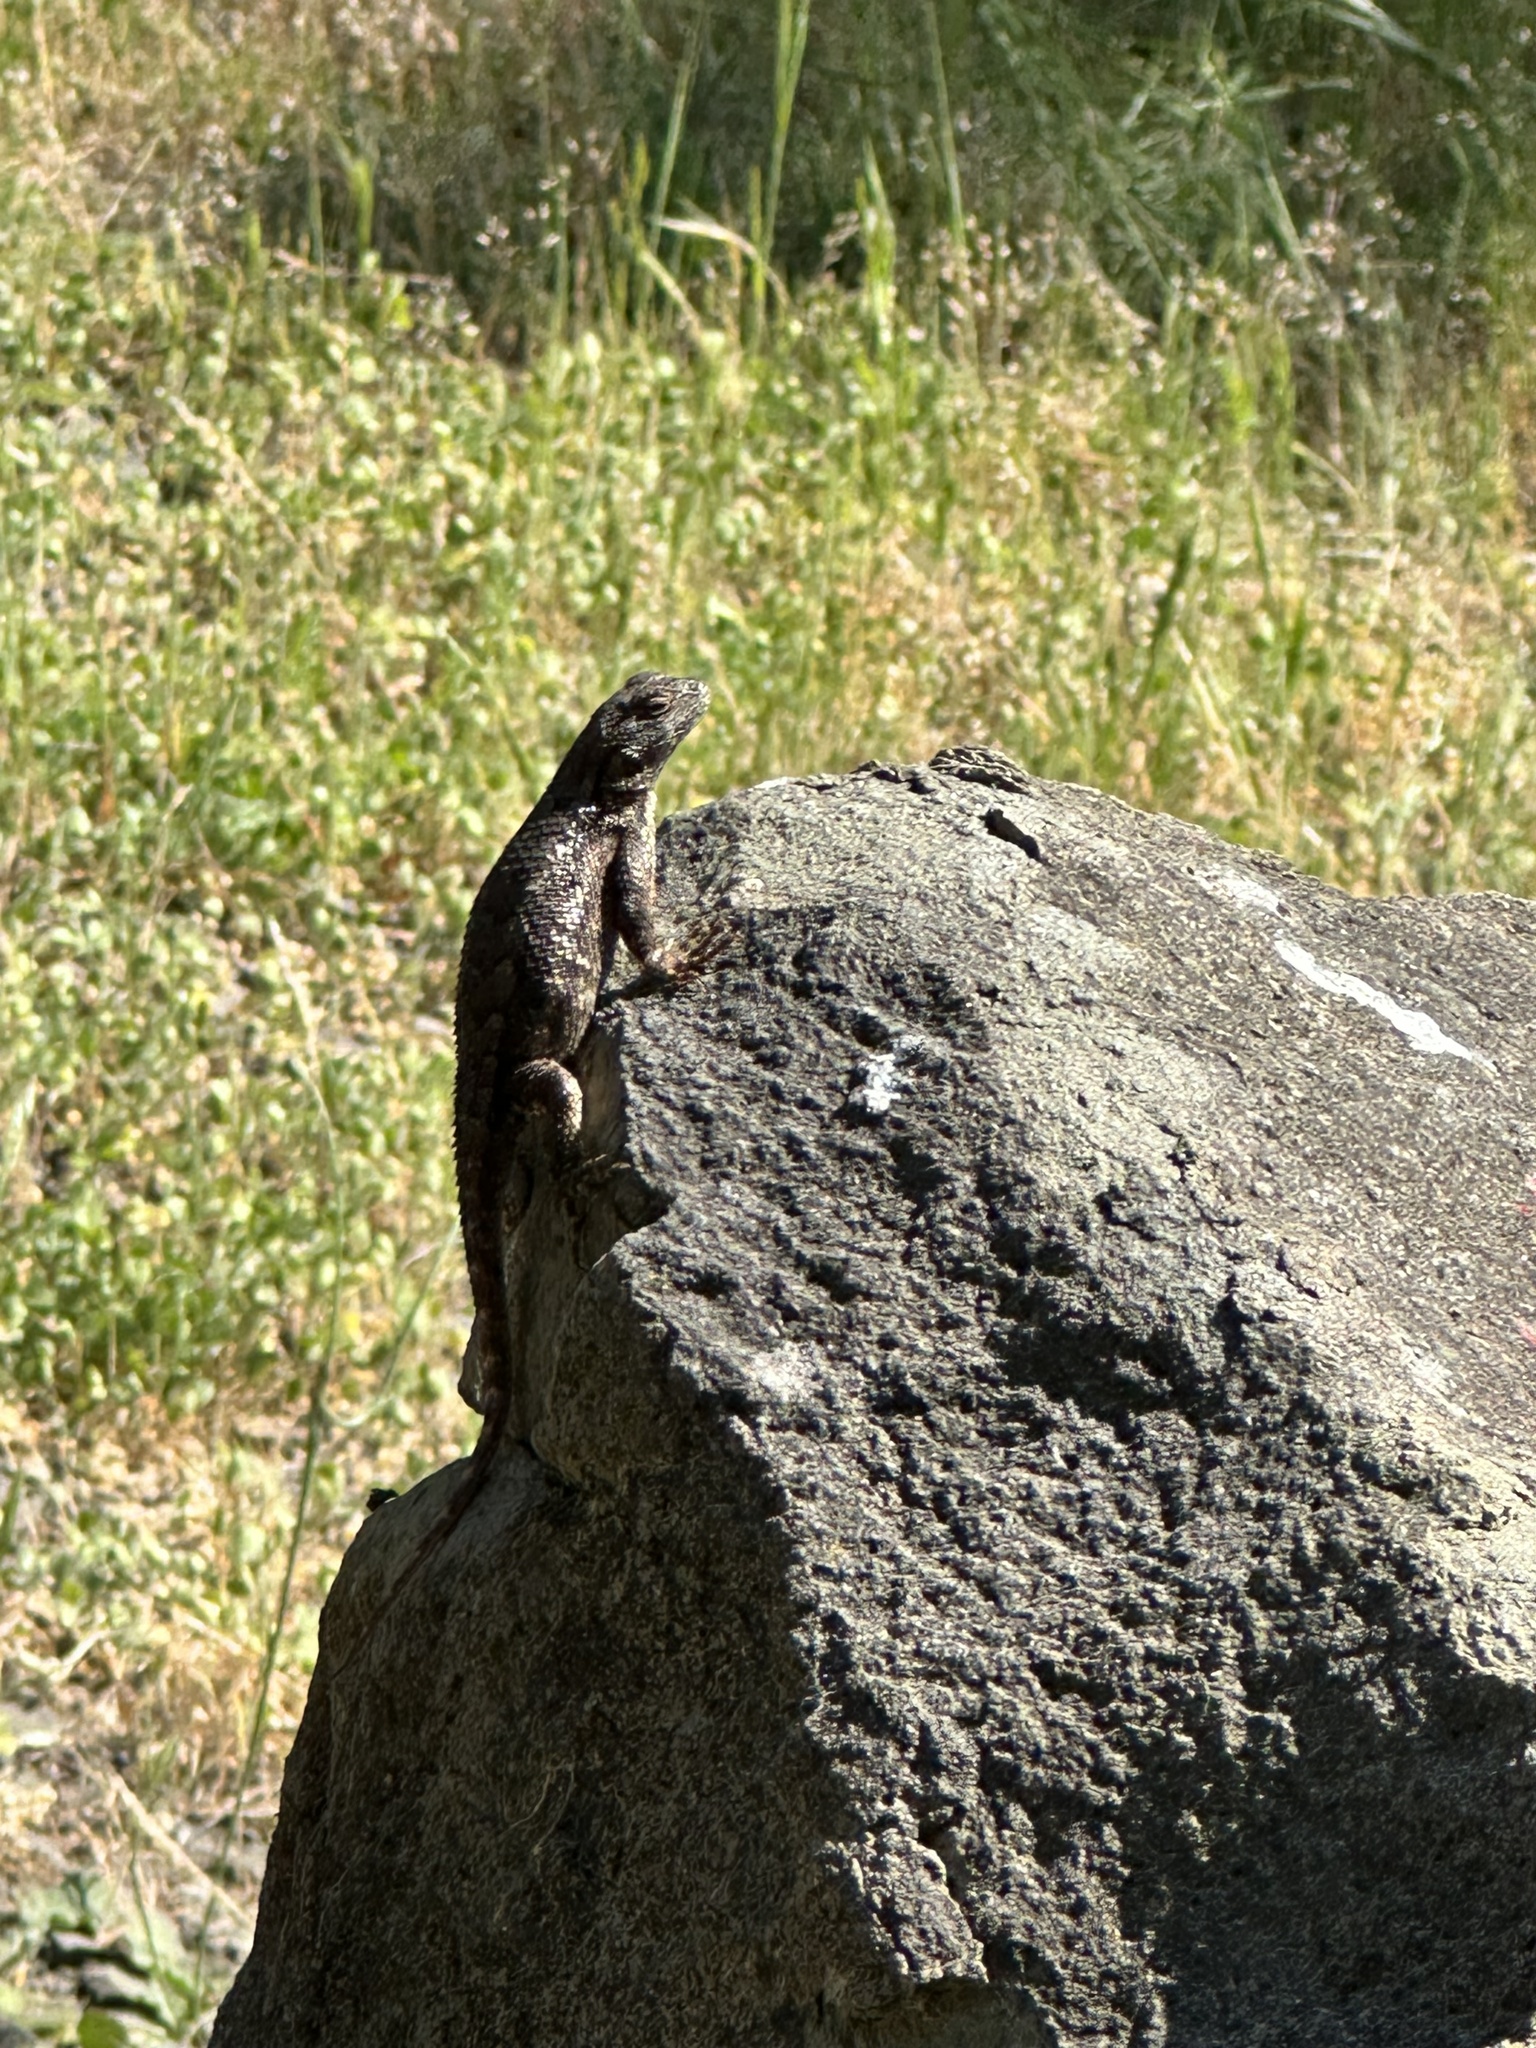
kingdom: Animalia
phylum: Chordata
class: Squamata
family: Phrynosomatidae
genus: Sceloporus
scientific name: Sceloporus occidentalis
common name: Western fence lizard
